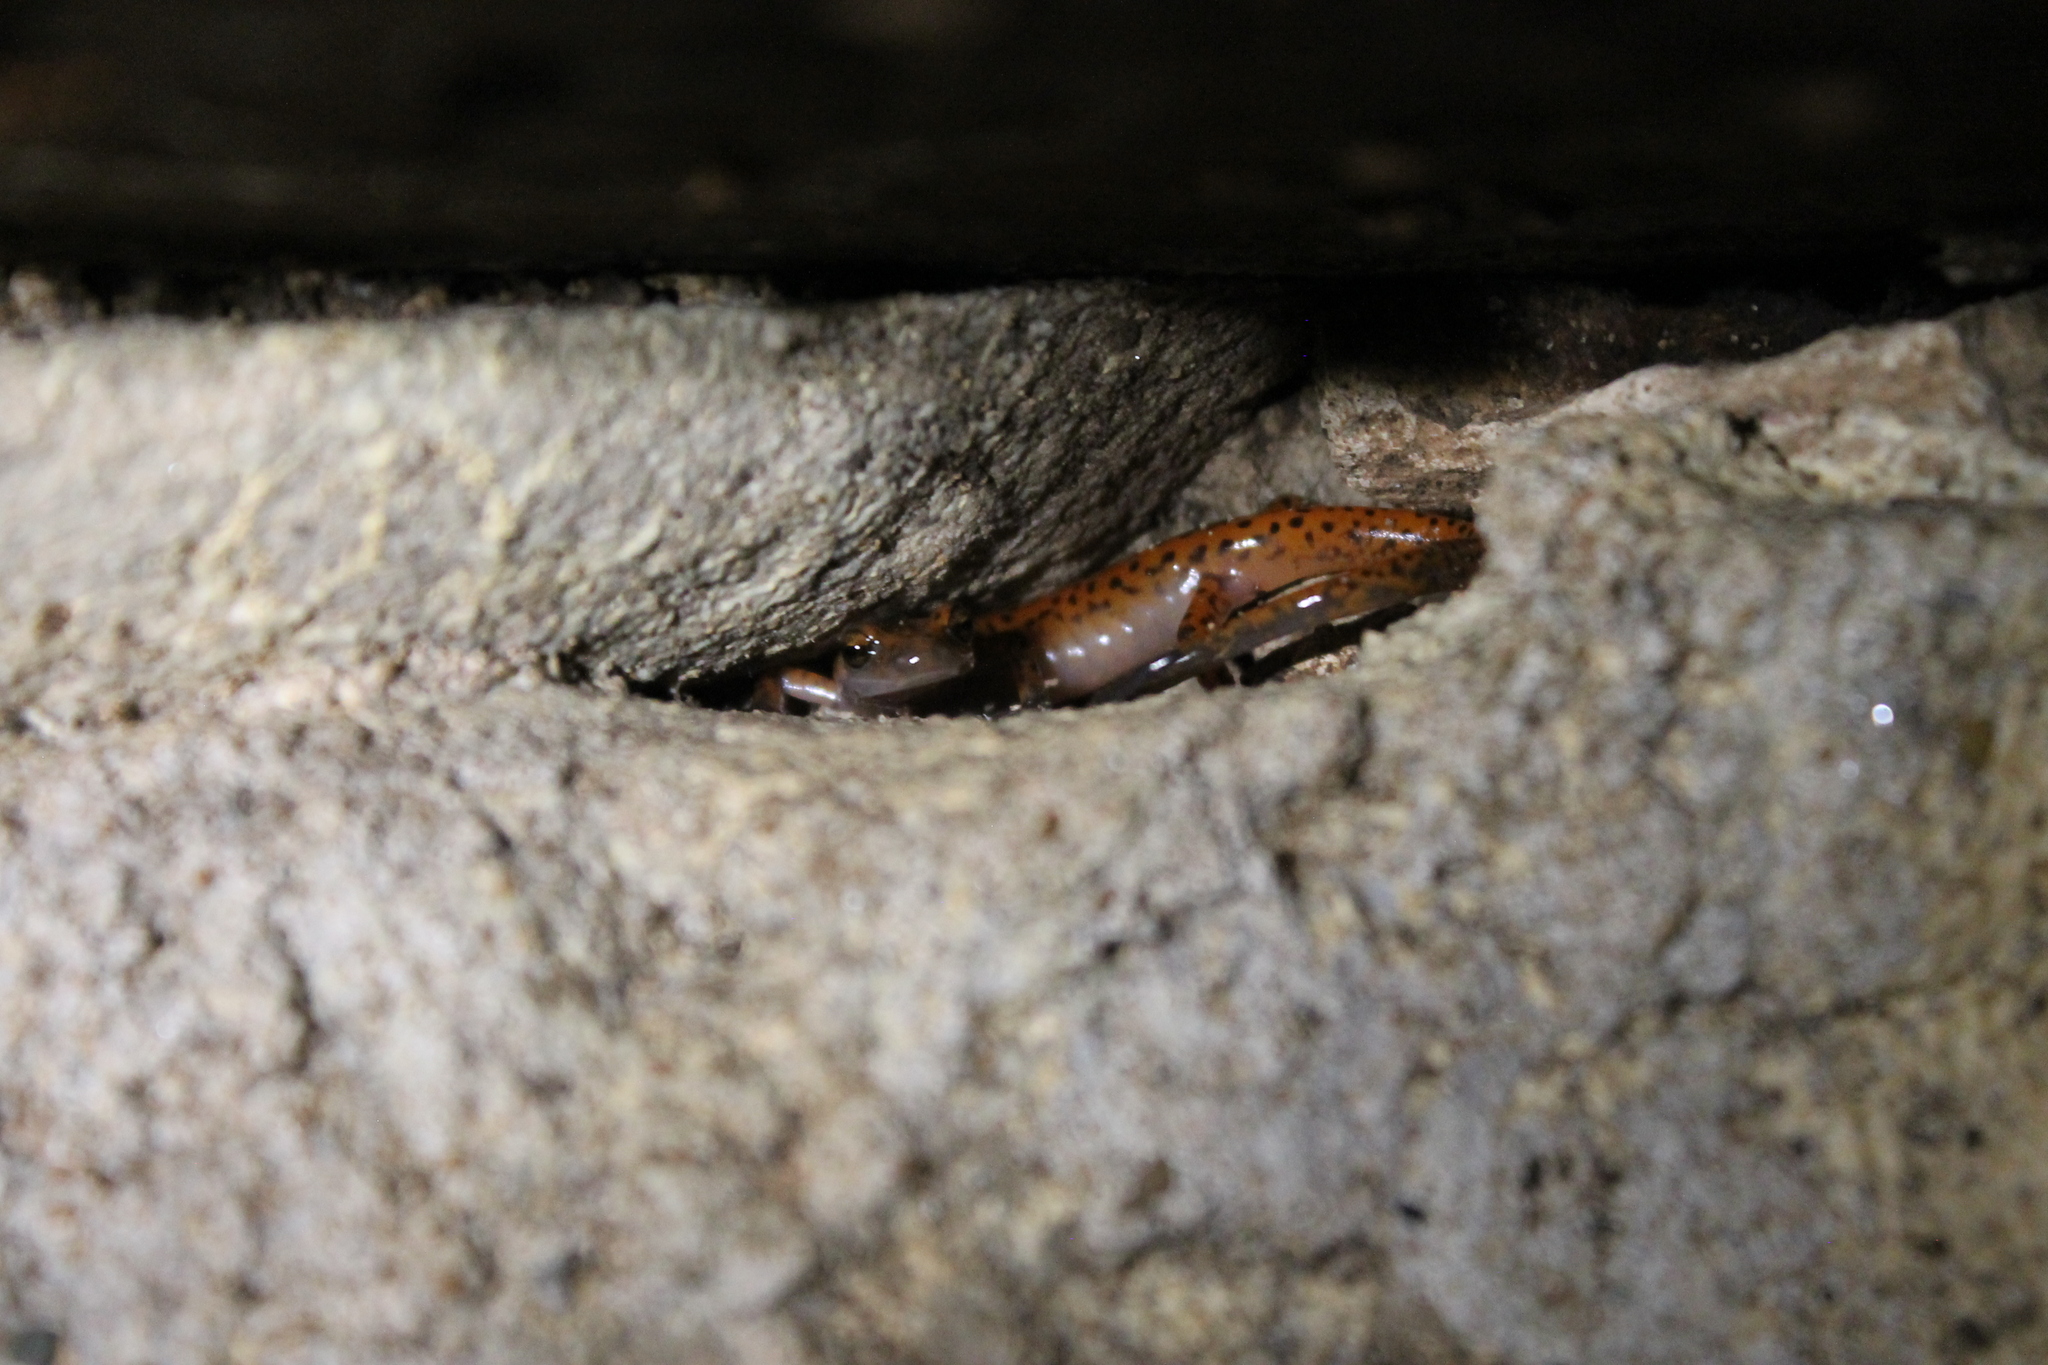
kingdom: Animalia
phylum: Chordata
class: Amphibia
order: Caudata
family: Plethodontidae
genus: Eurycea
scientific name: Eurycea lucifuga
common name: Cave salamander
